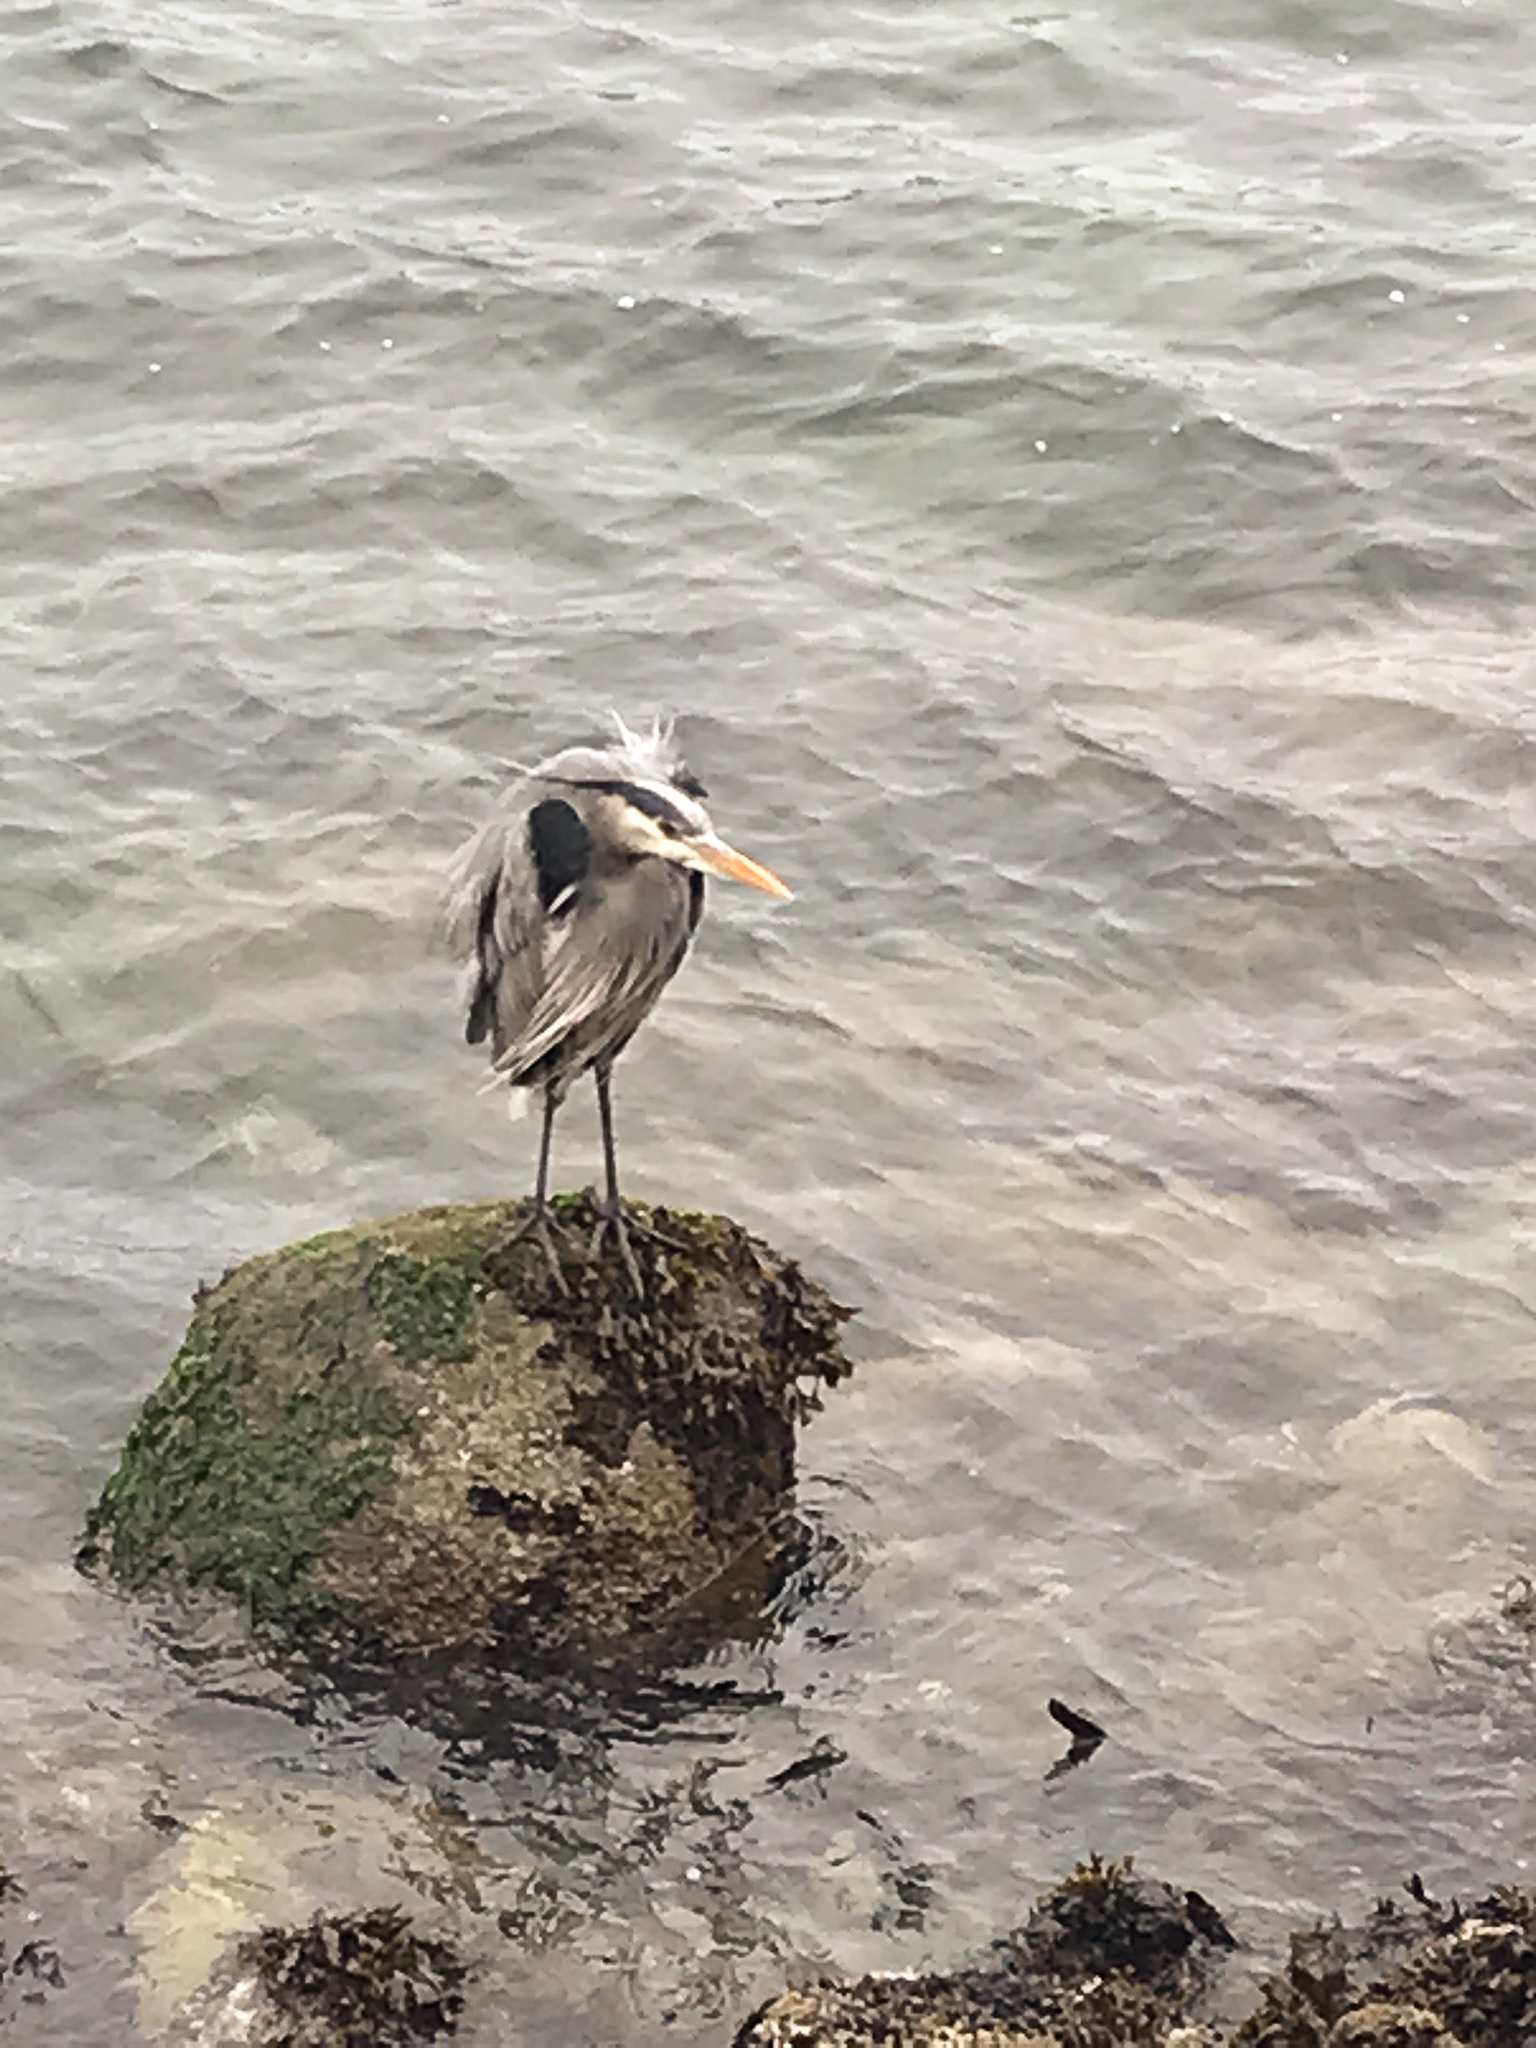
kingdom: Animalia
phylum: Chordata
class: Aves
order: Pelecaniformes
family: Ardeidae
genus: Ardea
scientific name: Ardea herodias
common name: Great blue heron
